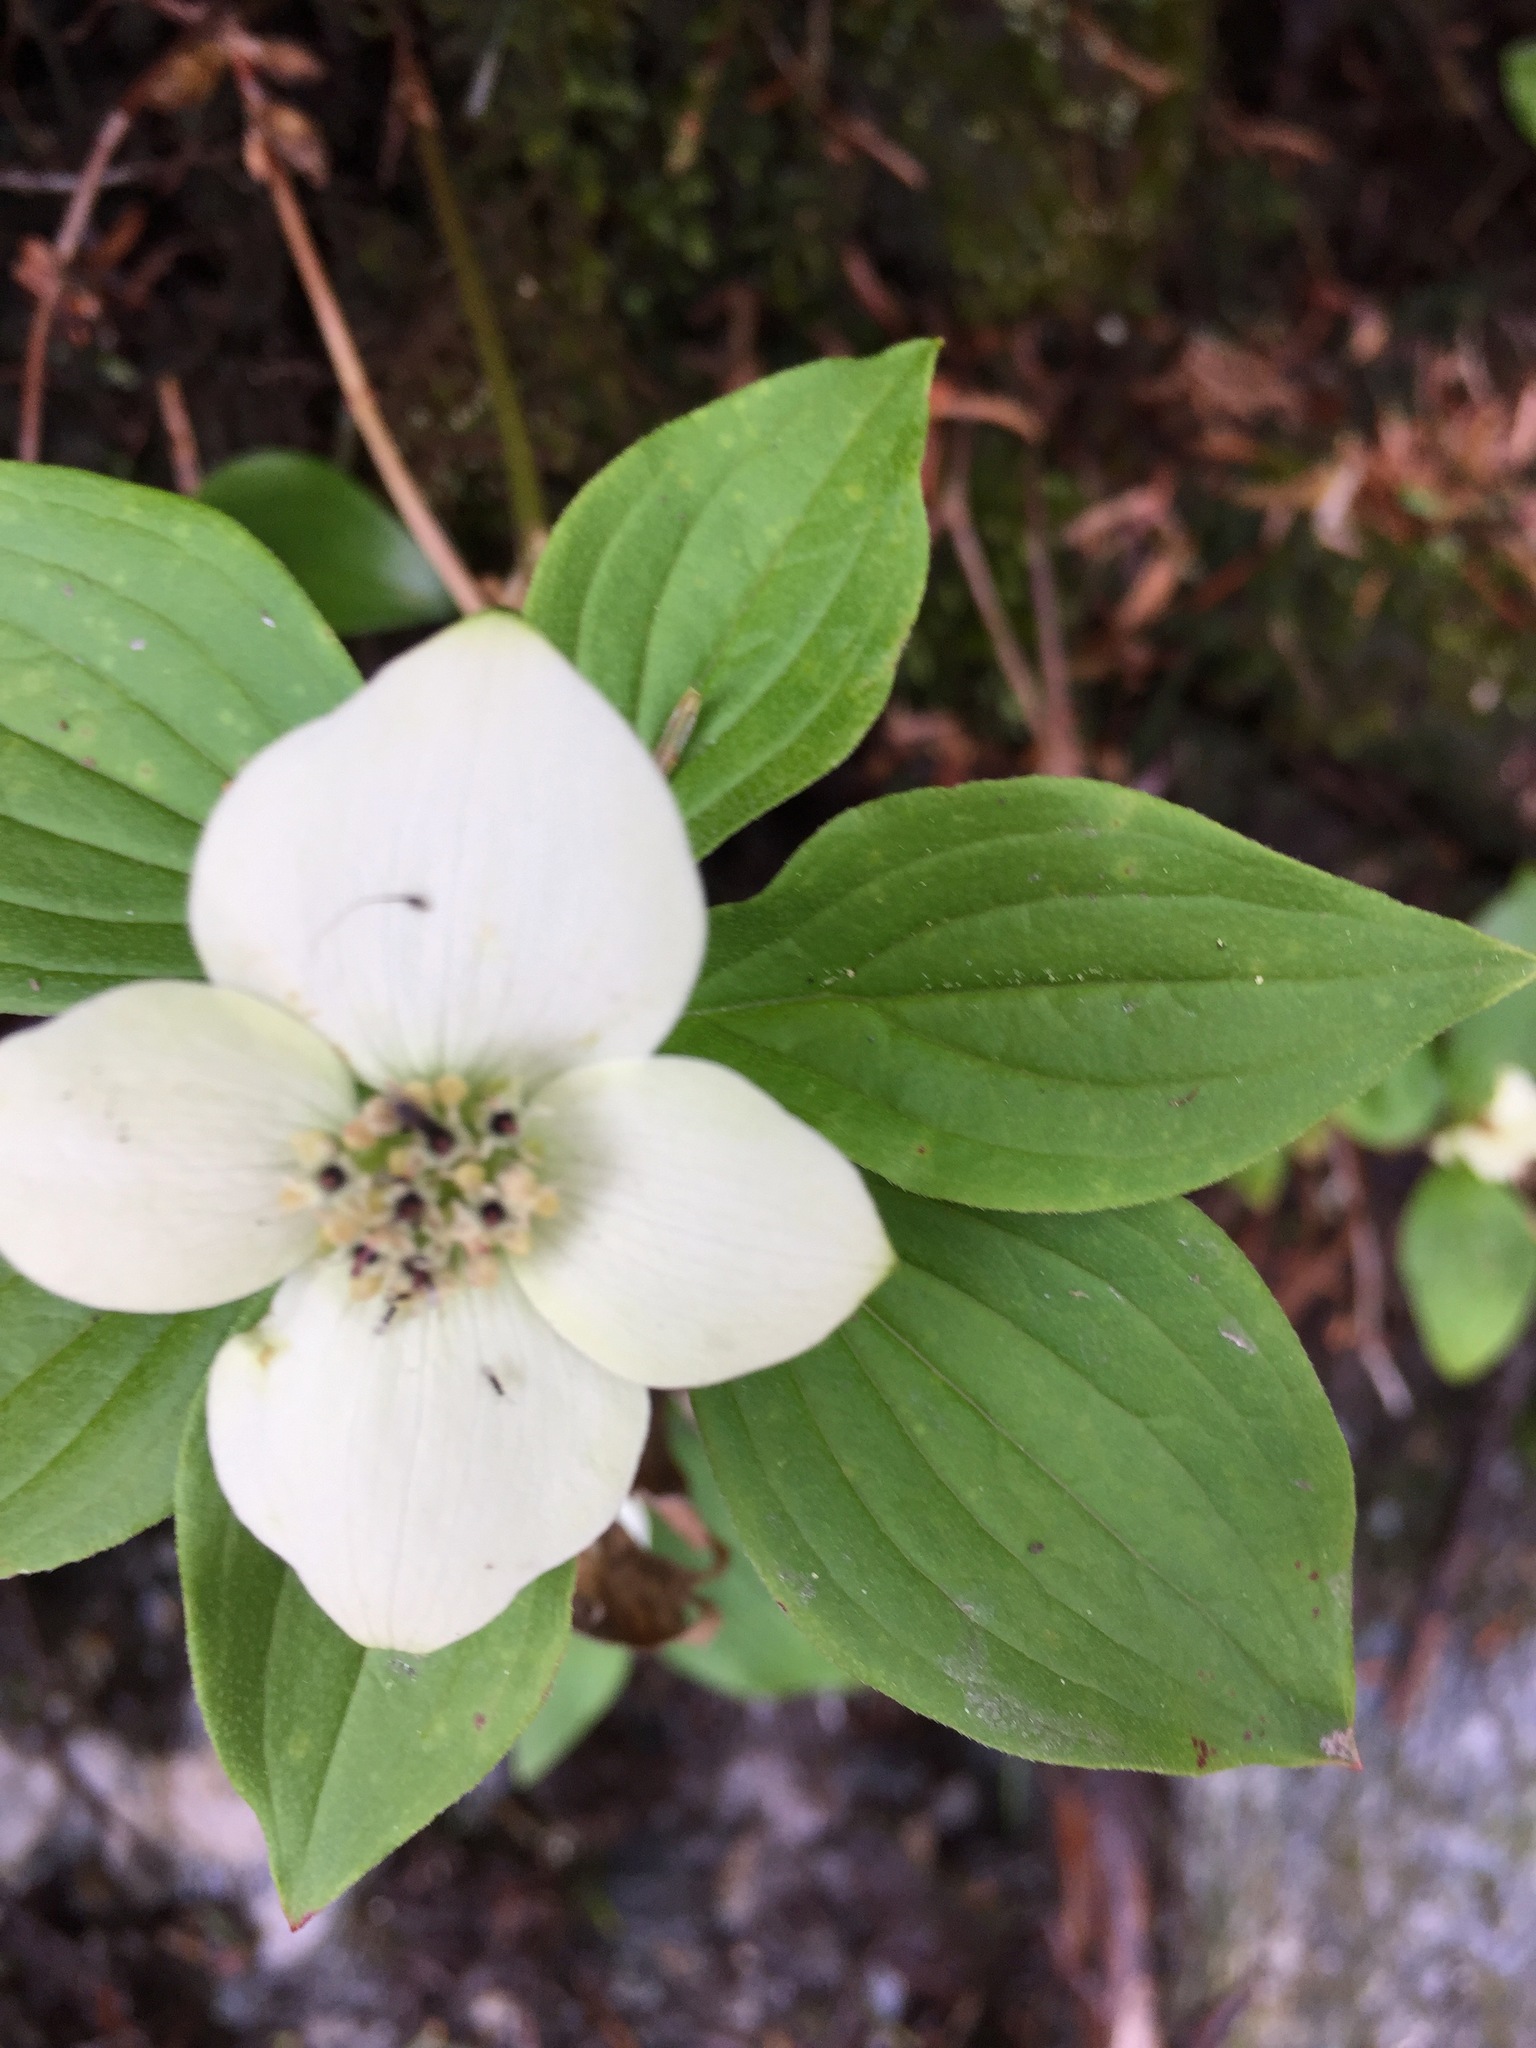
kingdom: Plantae
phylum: Tracheophyta
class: Magnoliopsida
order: Cornales
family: Cornaceae
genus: Cornus
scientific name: Cornus canadensis
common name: Creeping dogwood
